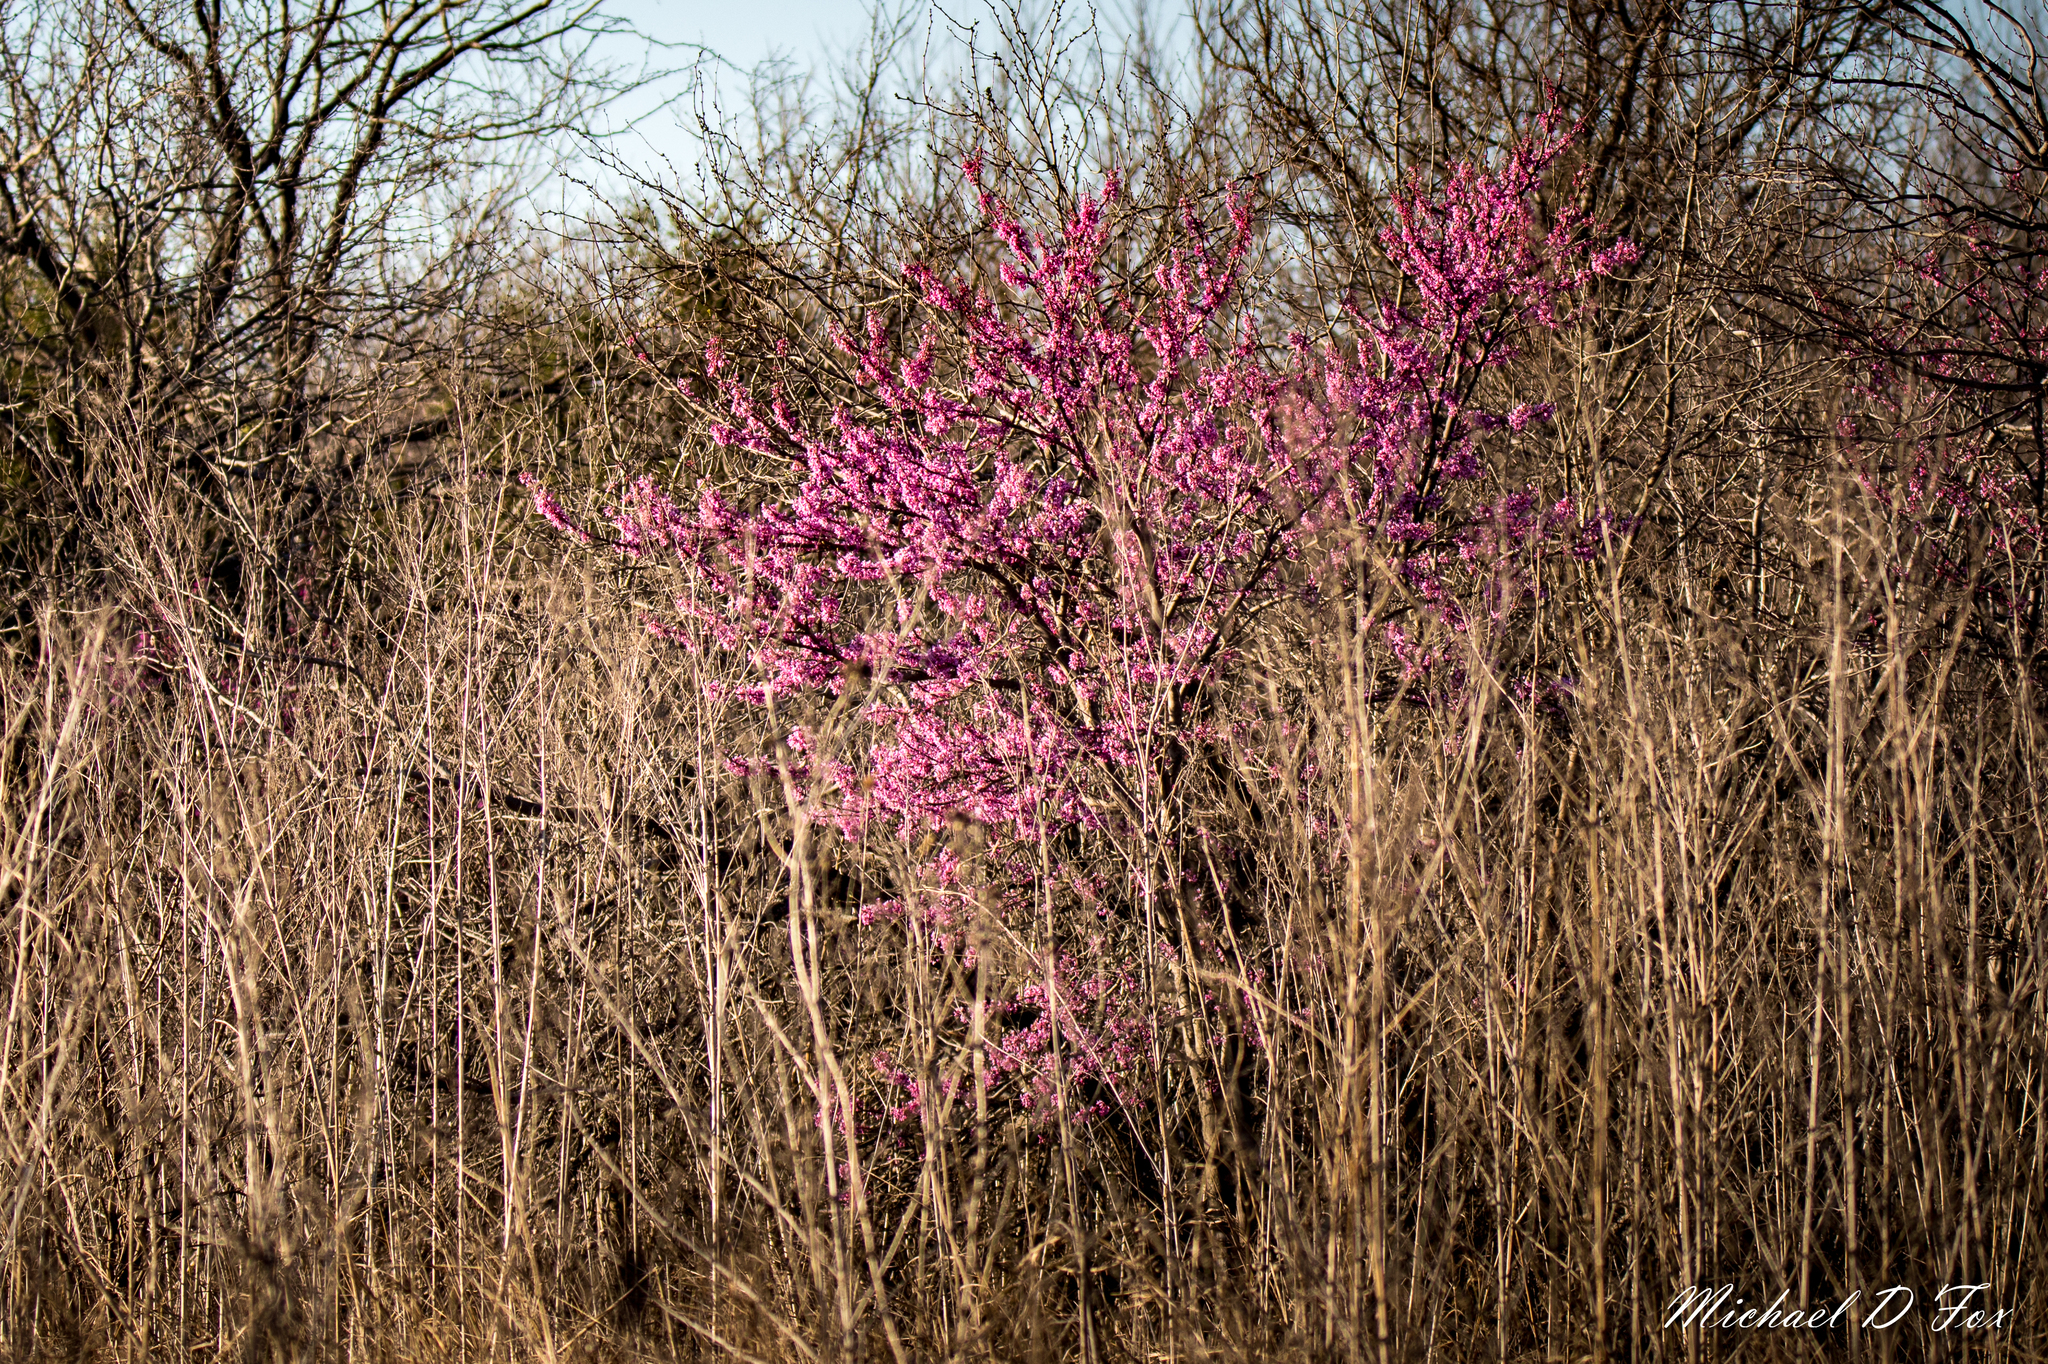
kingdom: Plantae
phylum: Tracheophyta
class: Magnoliopsida
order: Fabales
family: Fabaceae
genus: Cercis
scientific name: Cercis canadensis
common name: Eastern redbud
